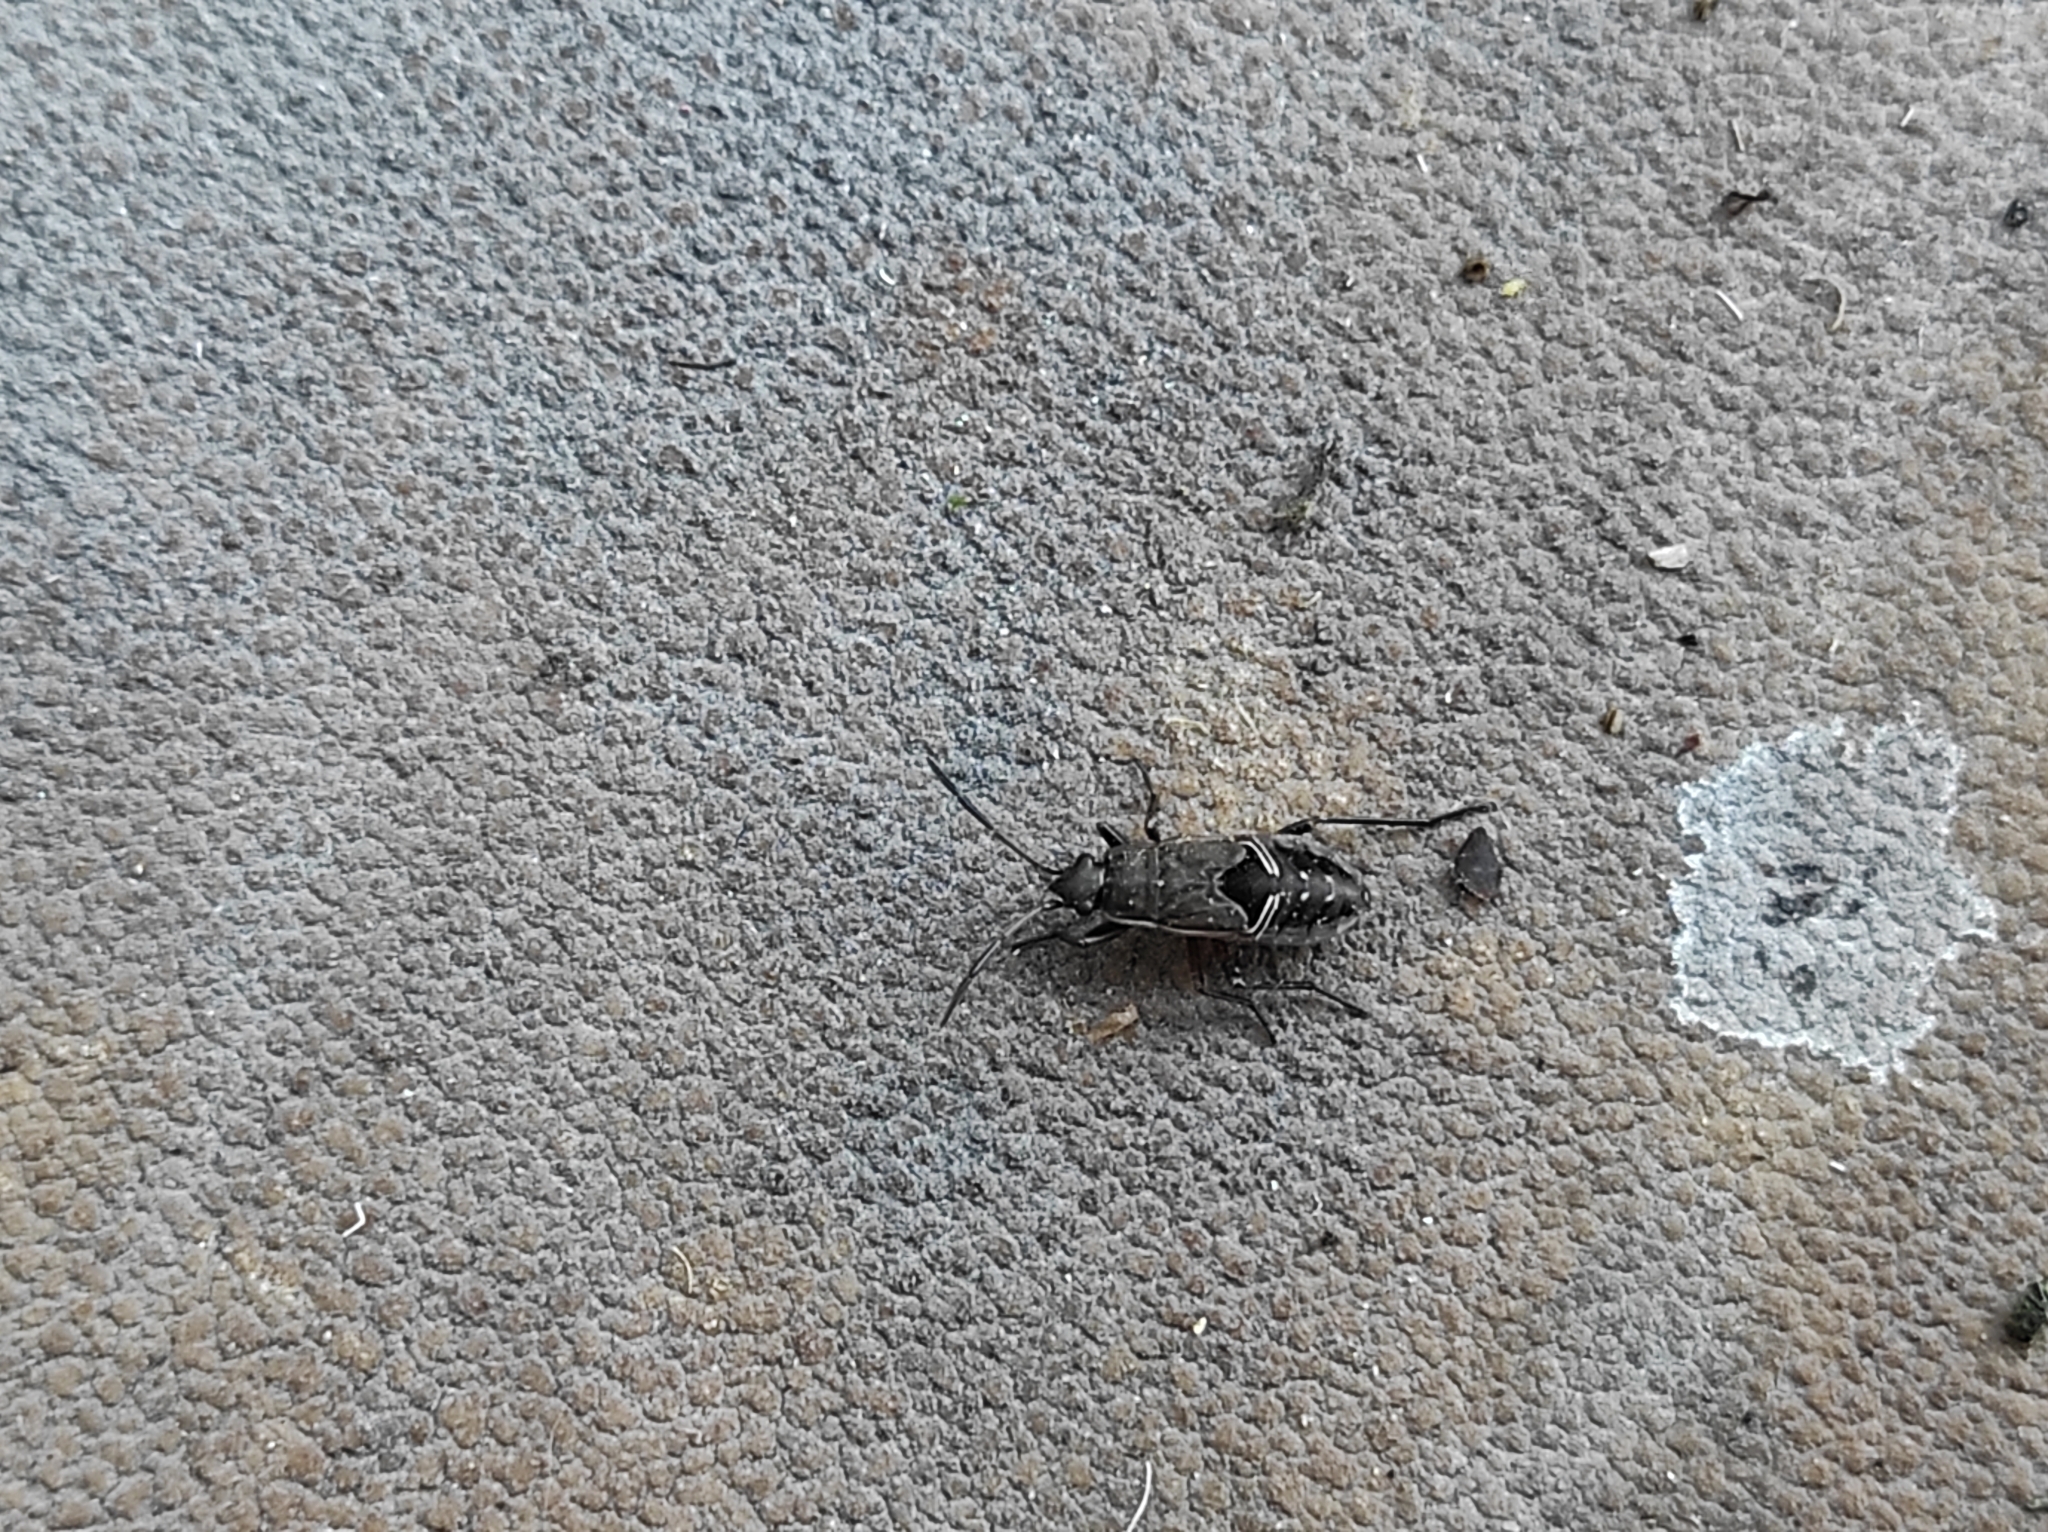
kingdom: Animalia
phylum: Arthropoda
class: Insecta
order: Hemiptera
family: Rhyparochromidae
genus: Rhyparochromus
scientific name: Rhyparochromus pini
